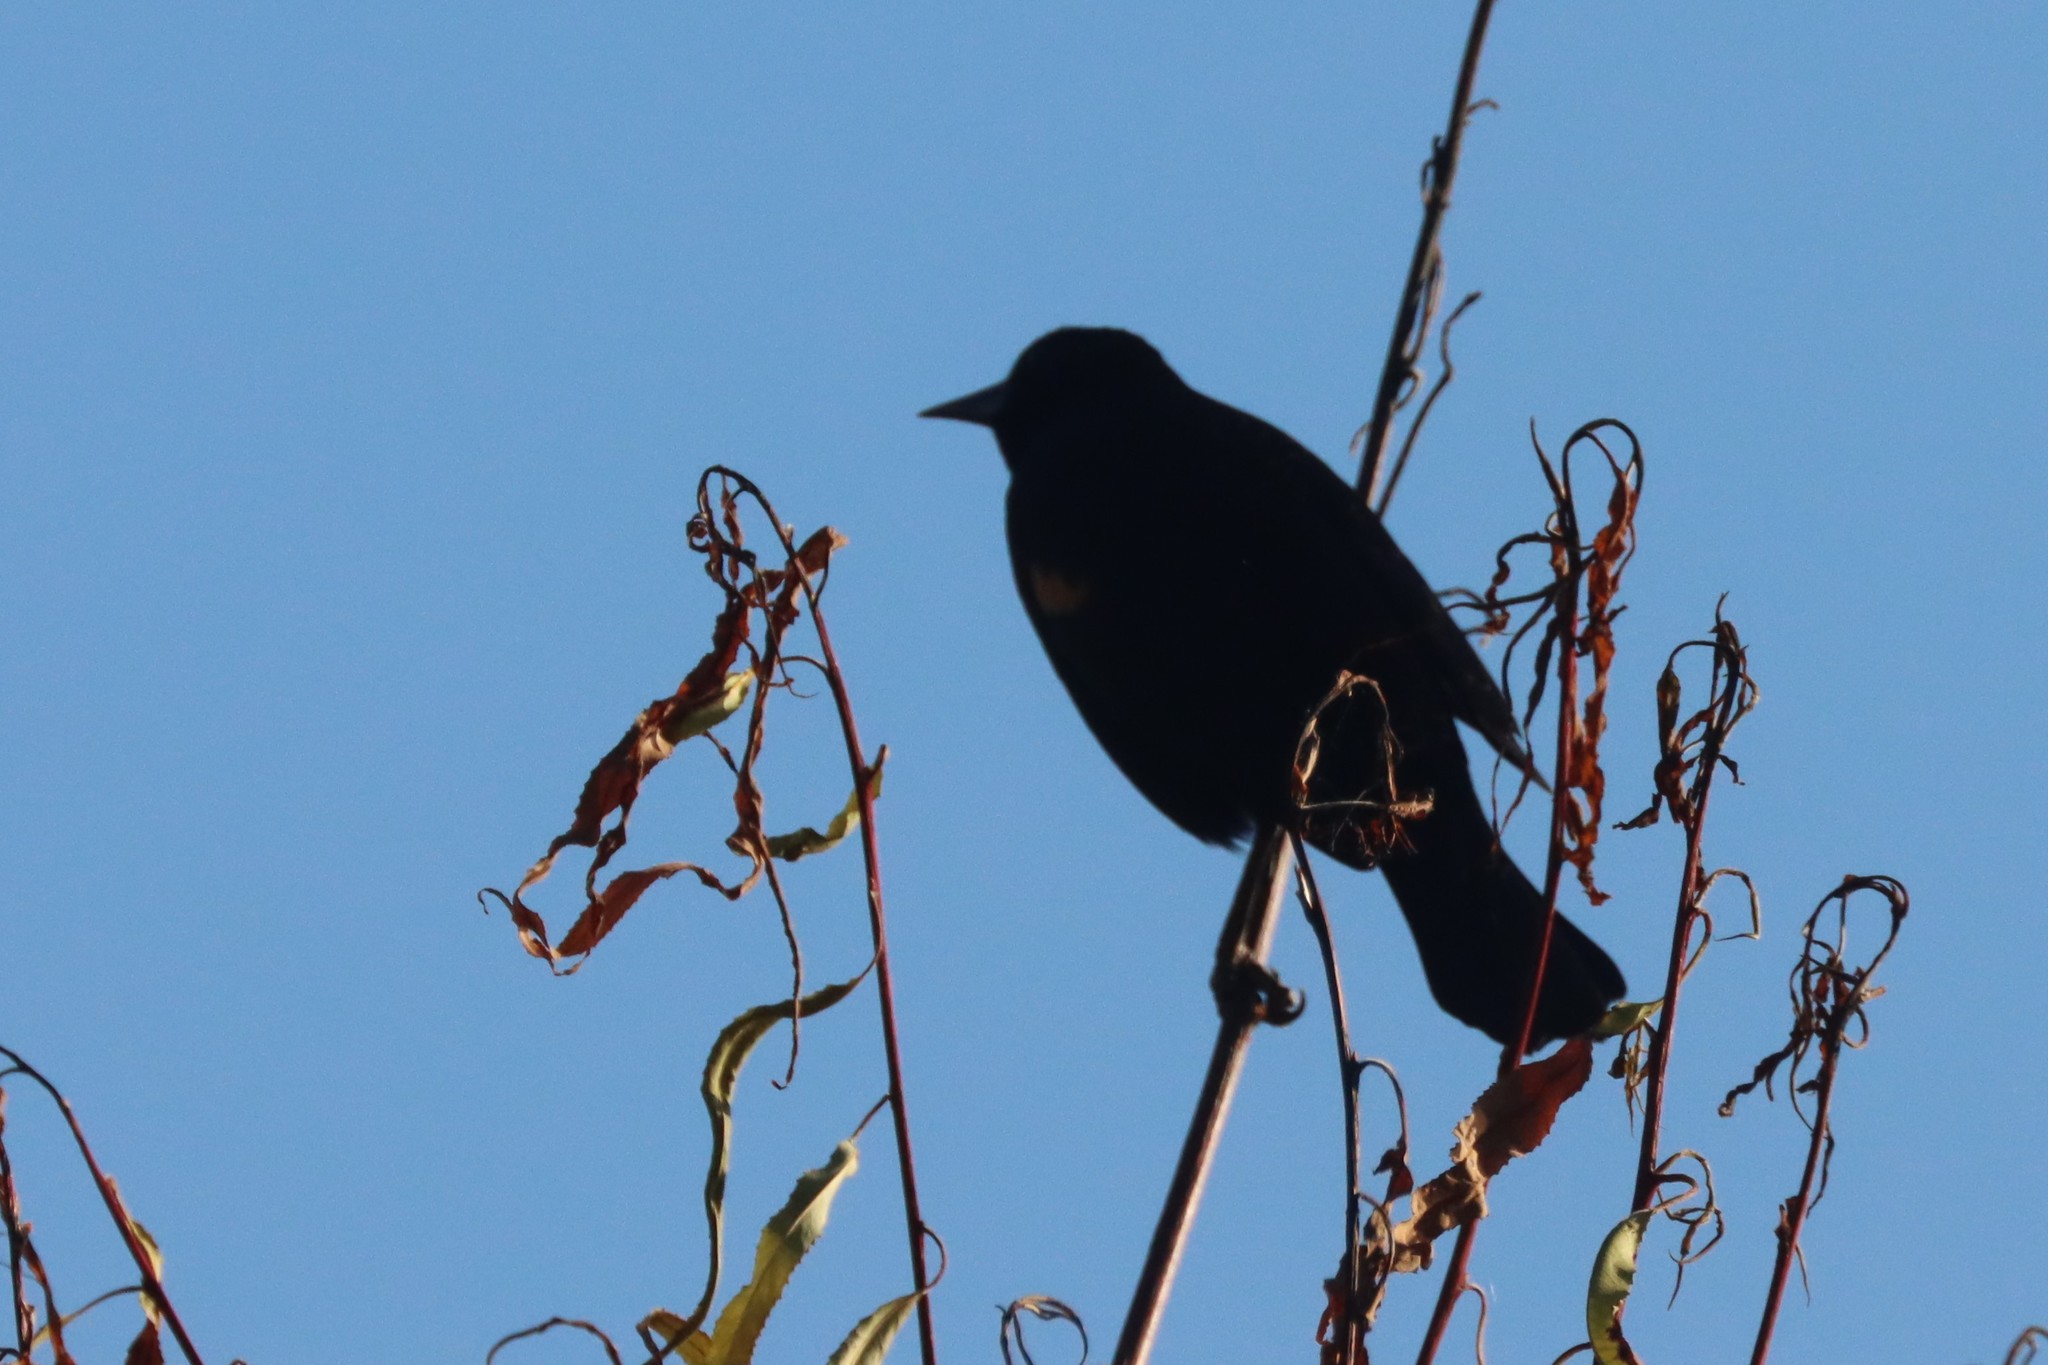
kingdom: Animalia
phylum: Chordata
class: Aves
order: Passeriformes
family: Icteridae
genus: Agelaius
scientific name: Agelaius phoeniceus
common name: Red-winged blackbird
